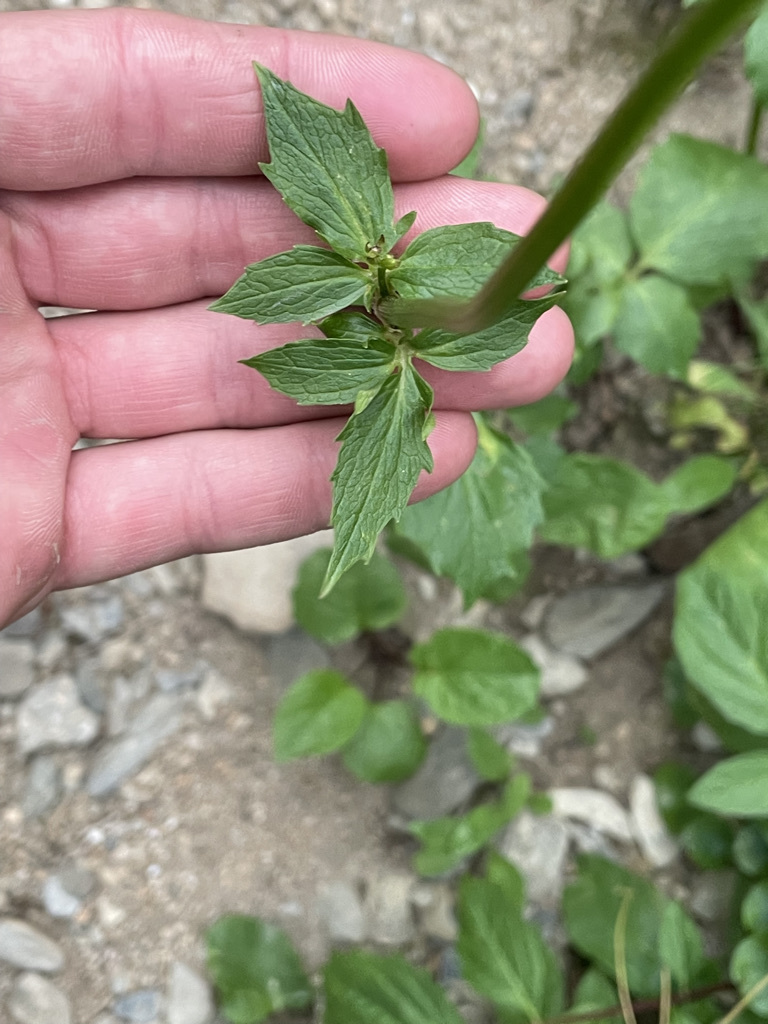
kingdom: Plantae
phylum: Tracheophyta
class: Magnoliopsida
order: Dipsacales
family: Caprifoliaceae
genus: Valeriana
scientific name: Valeriana sitchensis
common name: Pacific valerian
